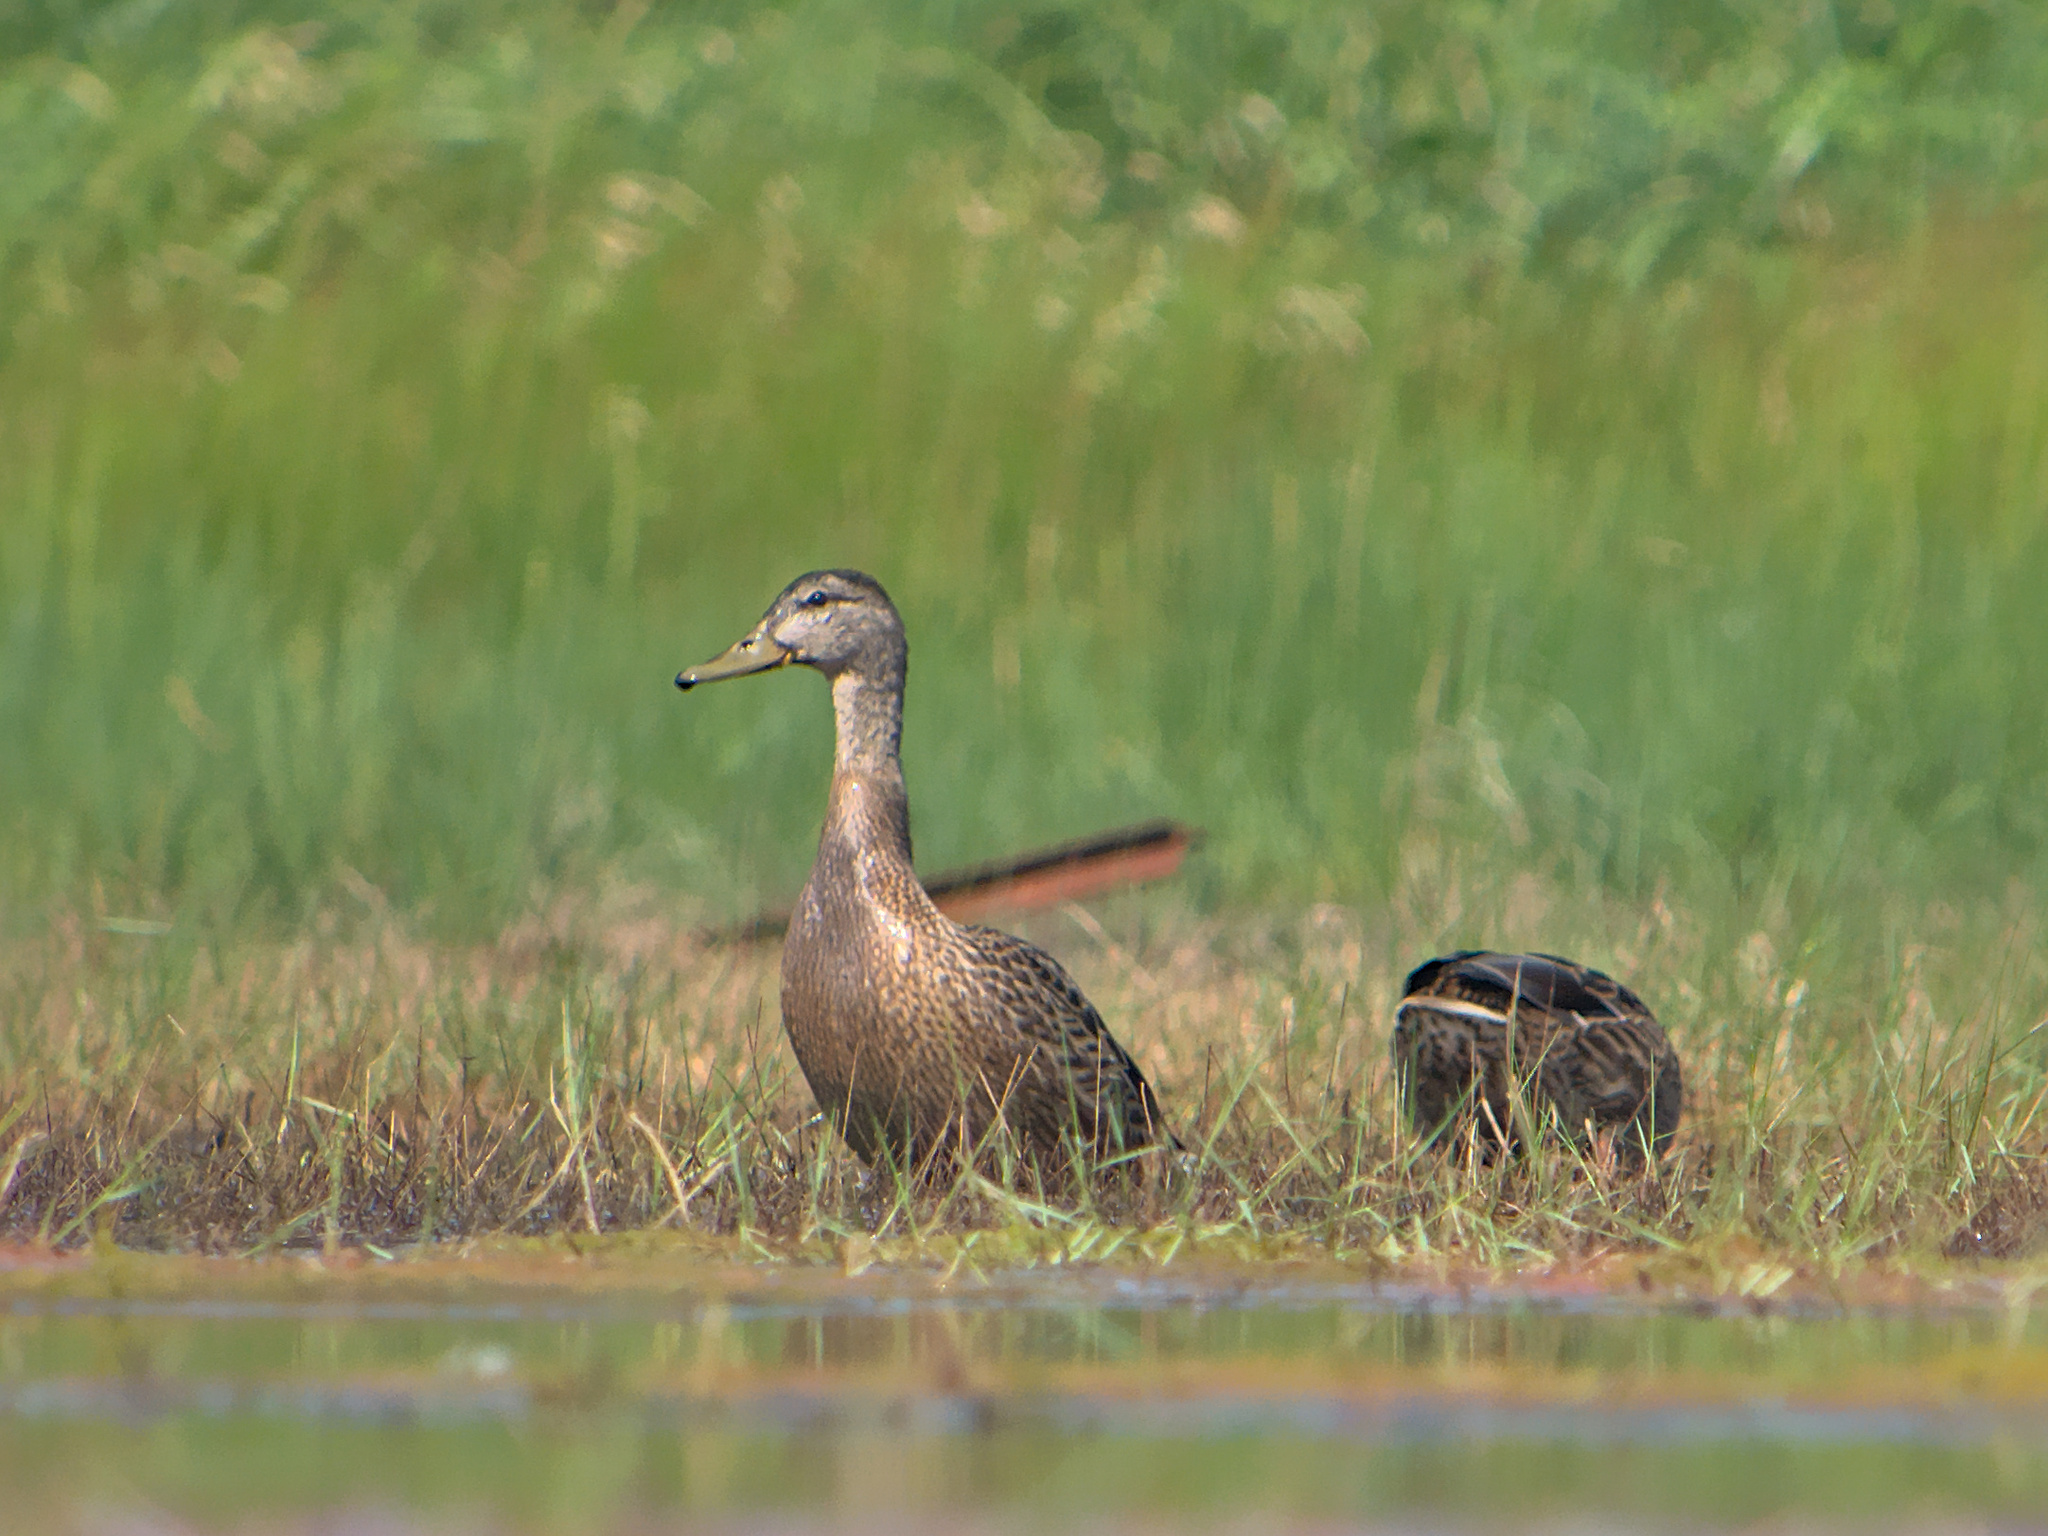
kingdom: Animalia
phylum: Chordata
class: Aves
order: Anseriformes
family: Anatidae
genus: Anas
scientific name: Anas platyrhynchos
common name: Mallard
